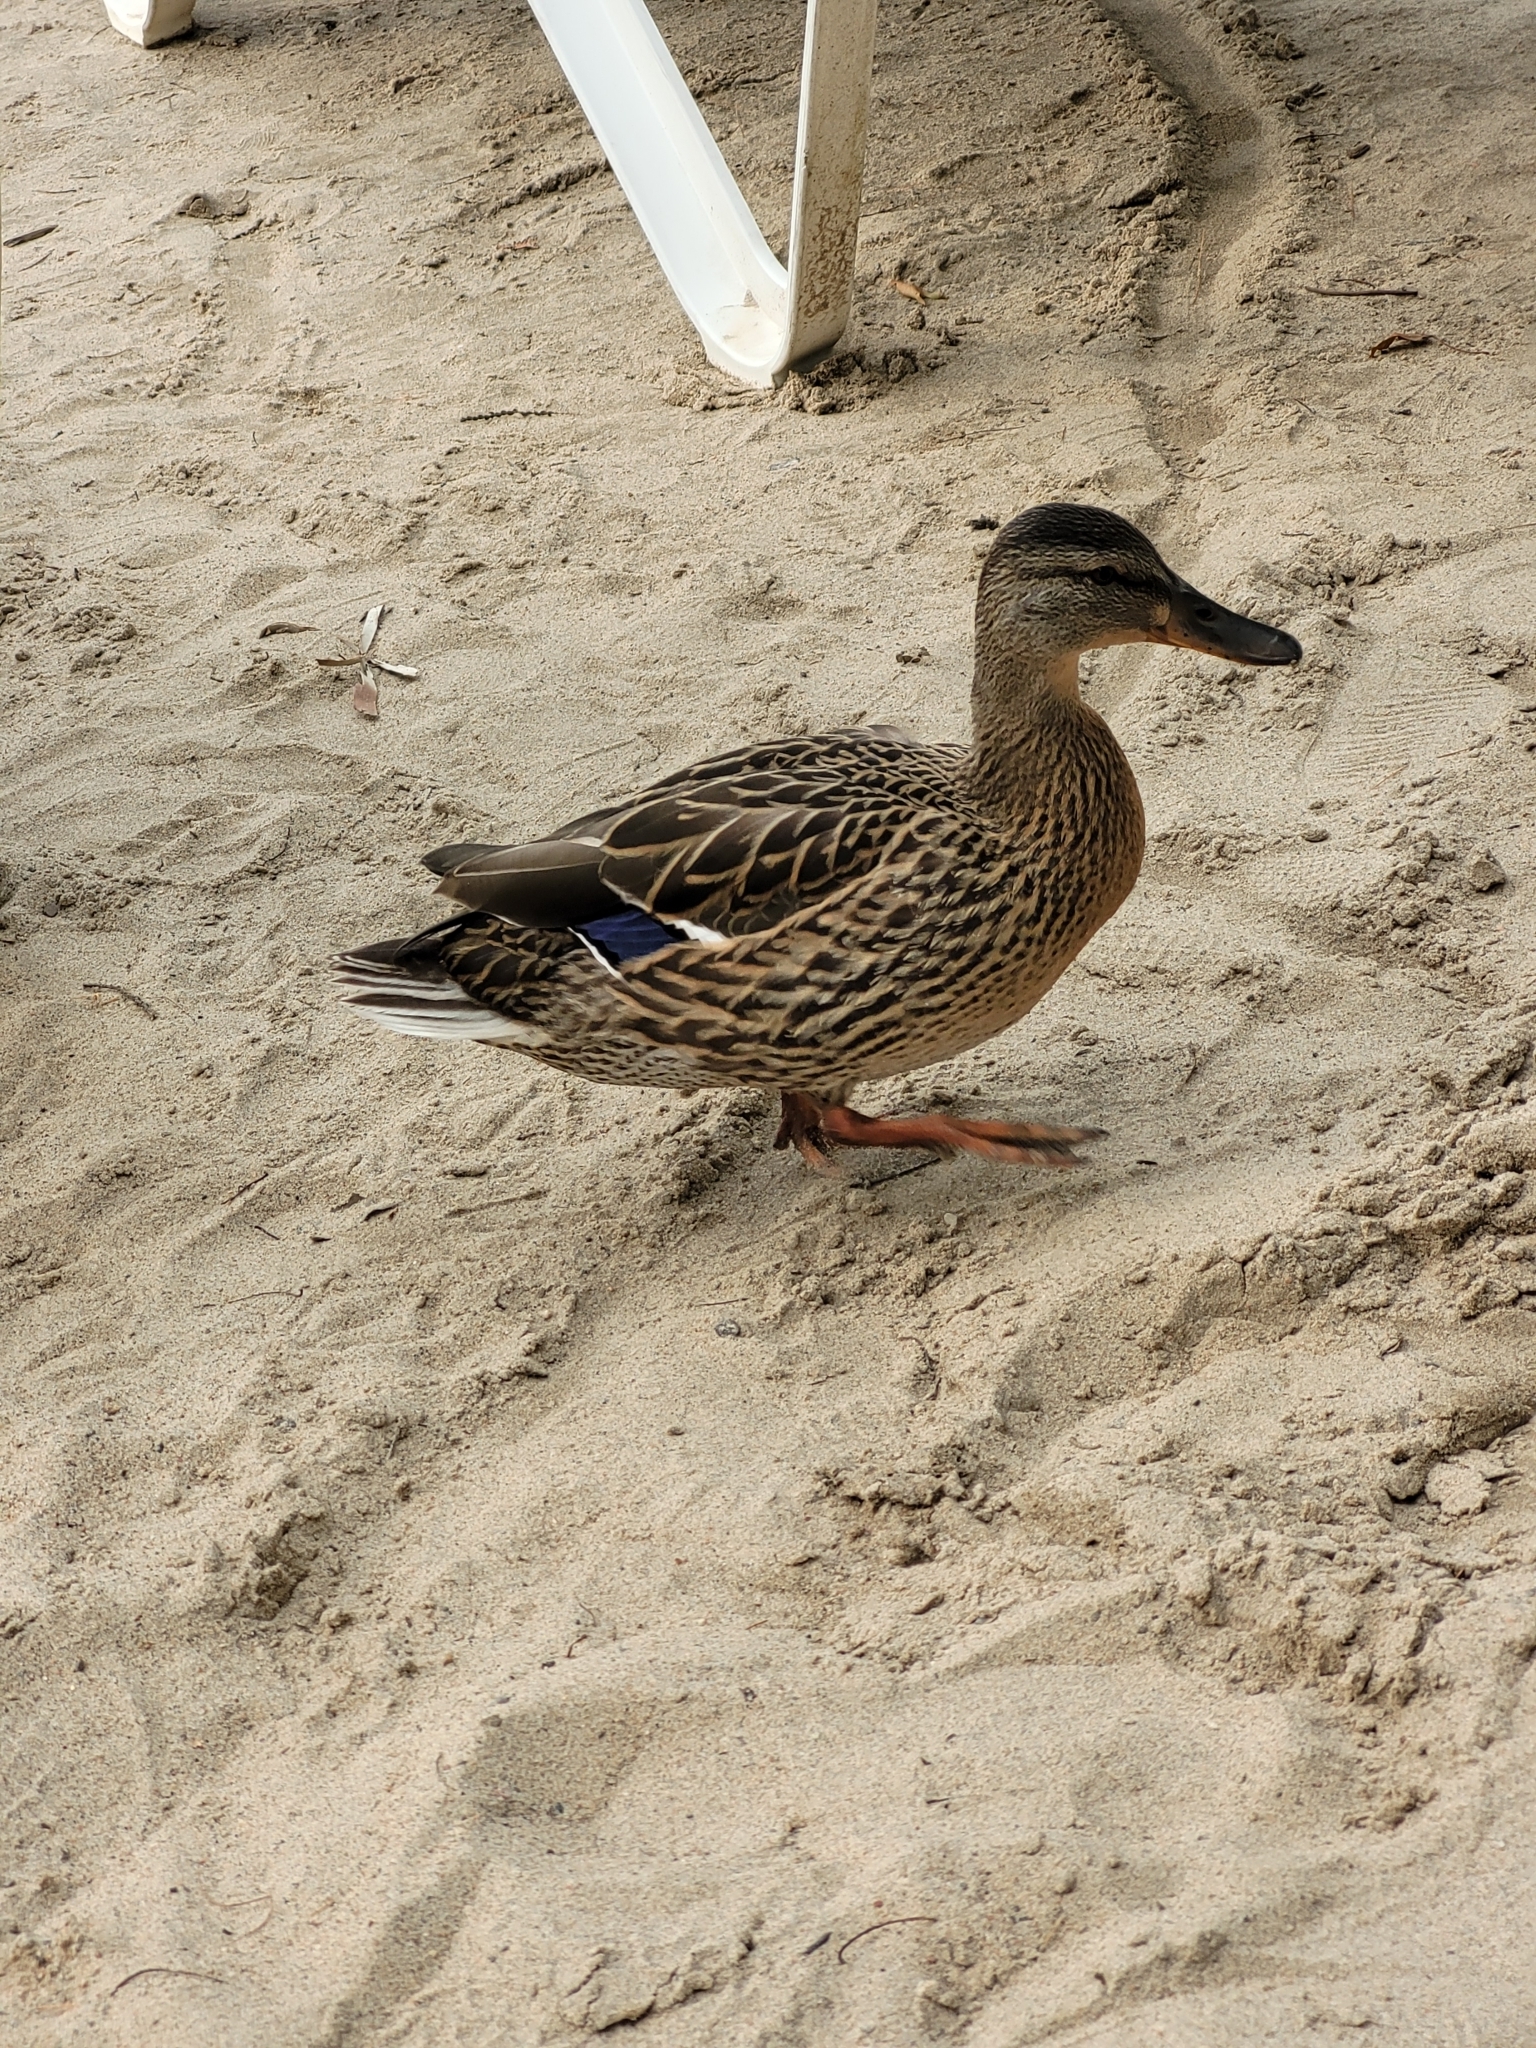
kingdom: Animalia
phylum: Chordata
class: Aves
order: Anseriformes
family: Anatidae
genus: Anas
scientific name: Anas platyrhynchos
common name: Mallard
